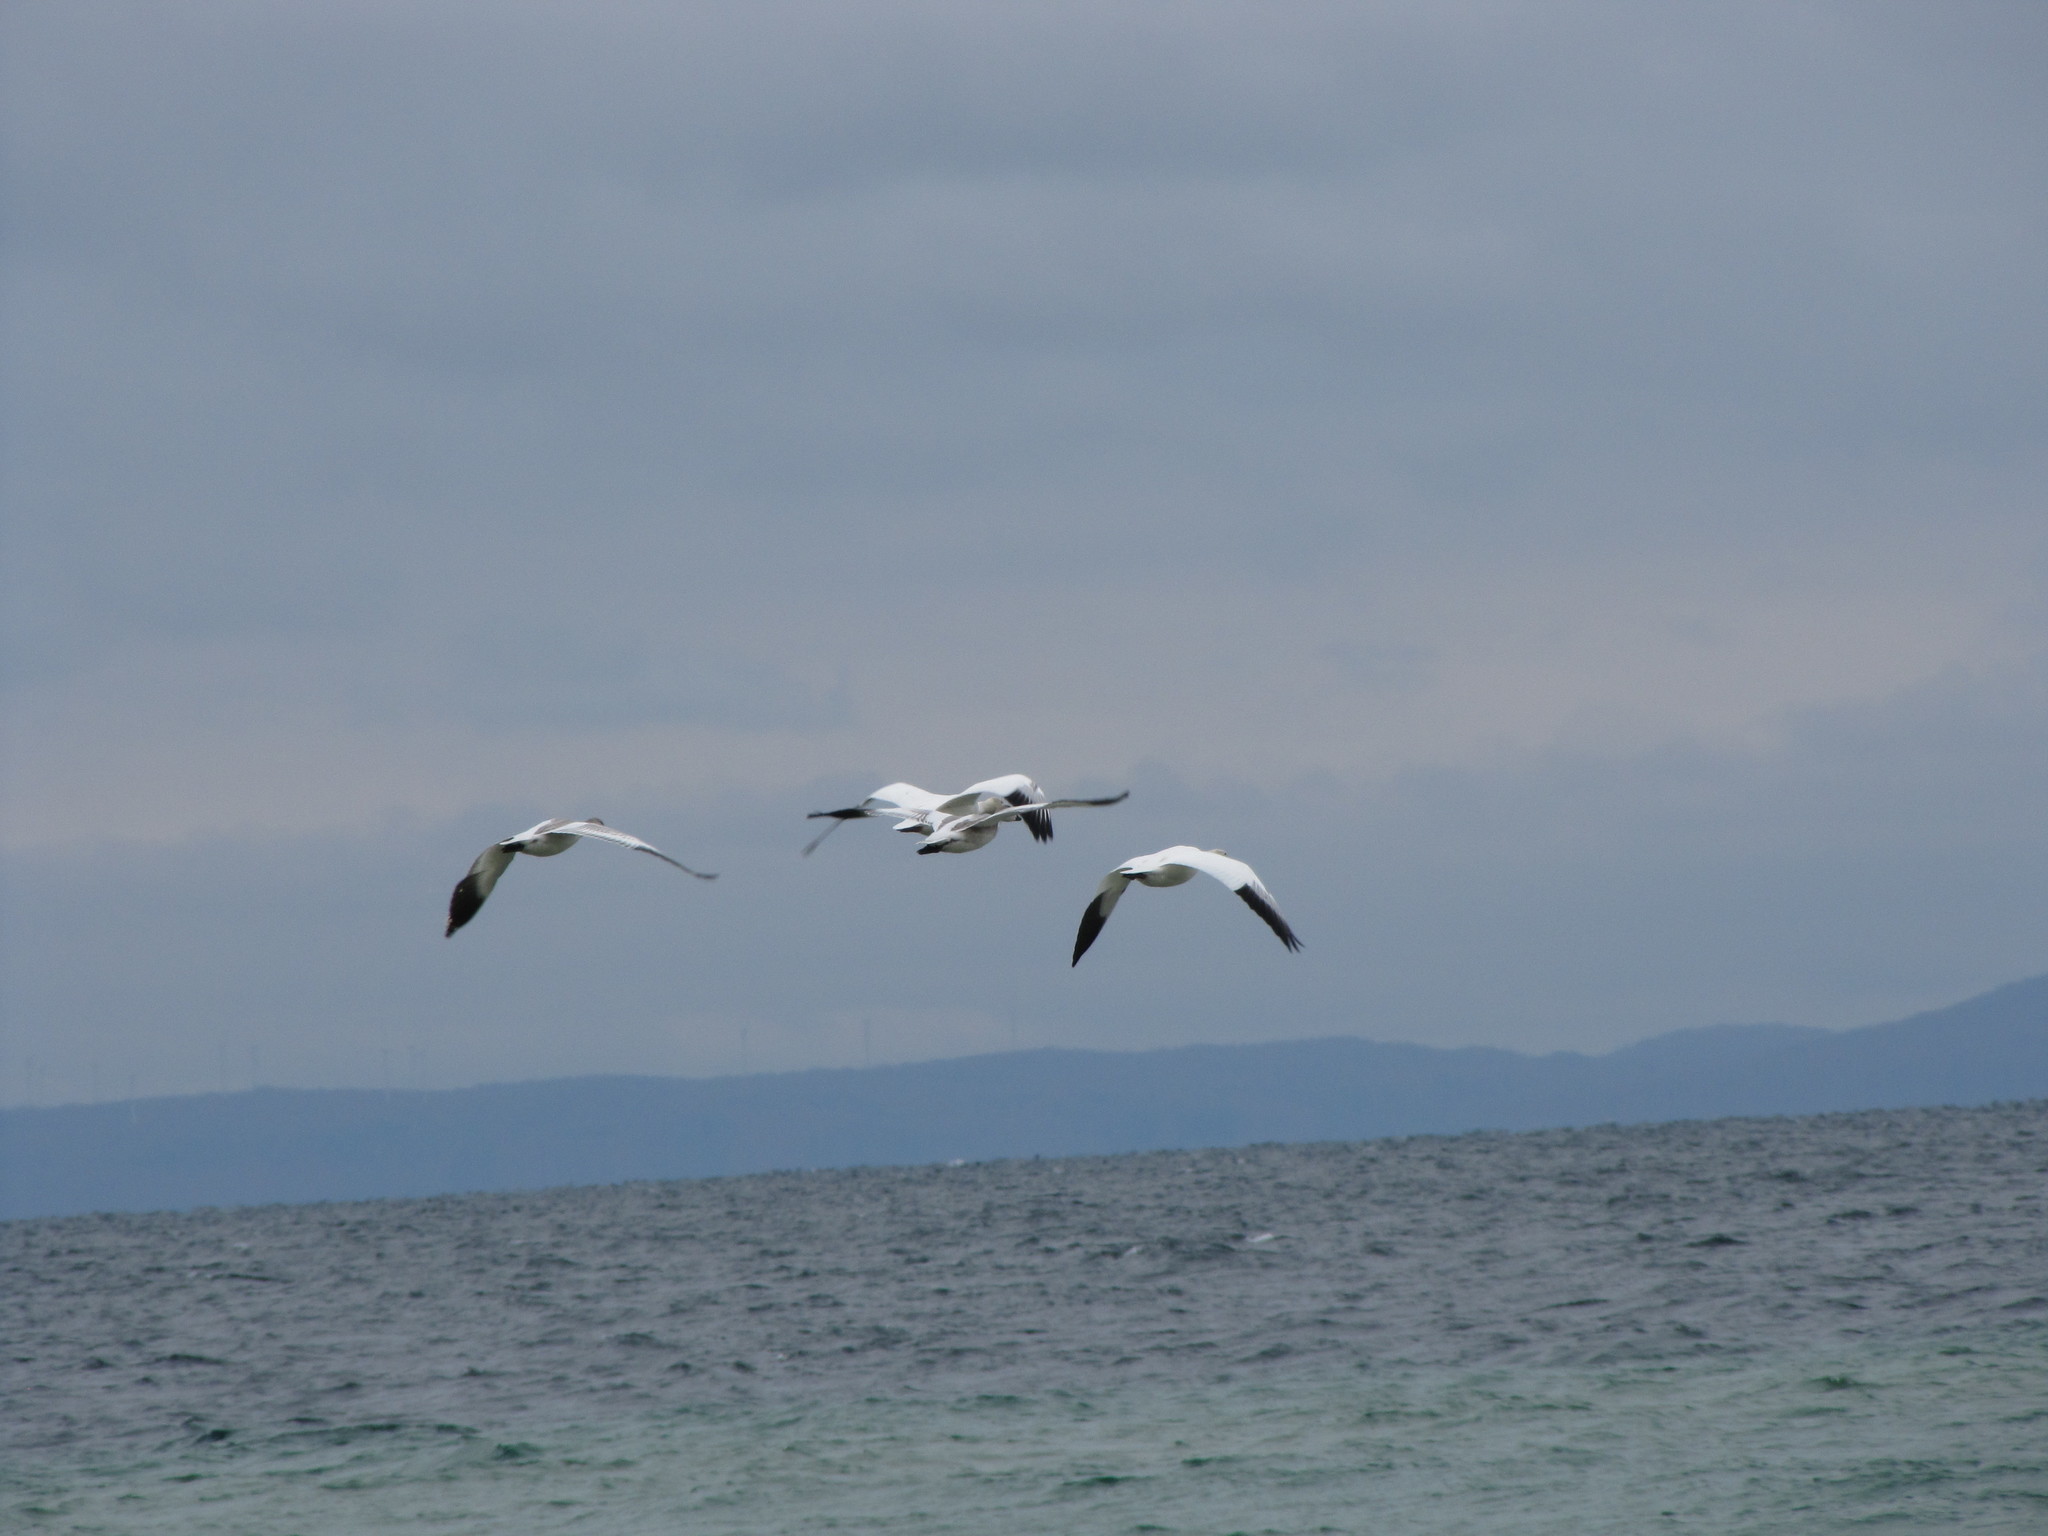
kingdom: Animalia
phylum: Chordata
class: Aves
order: Anseriformes
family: Anatidae
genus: Anser
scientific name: Anser caerulescens
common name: Snow goose
